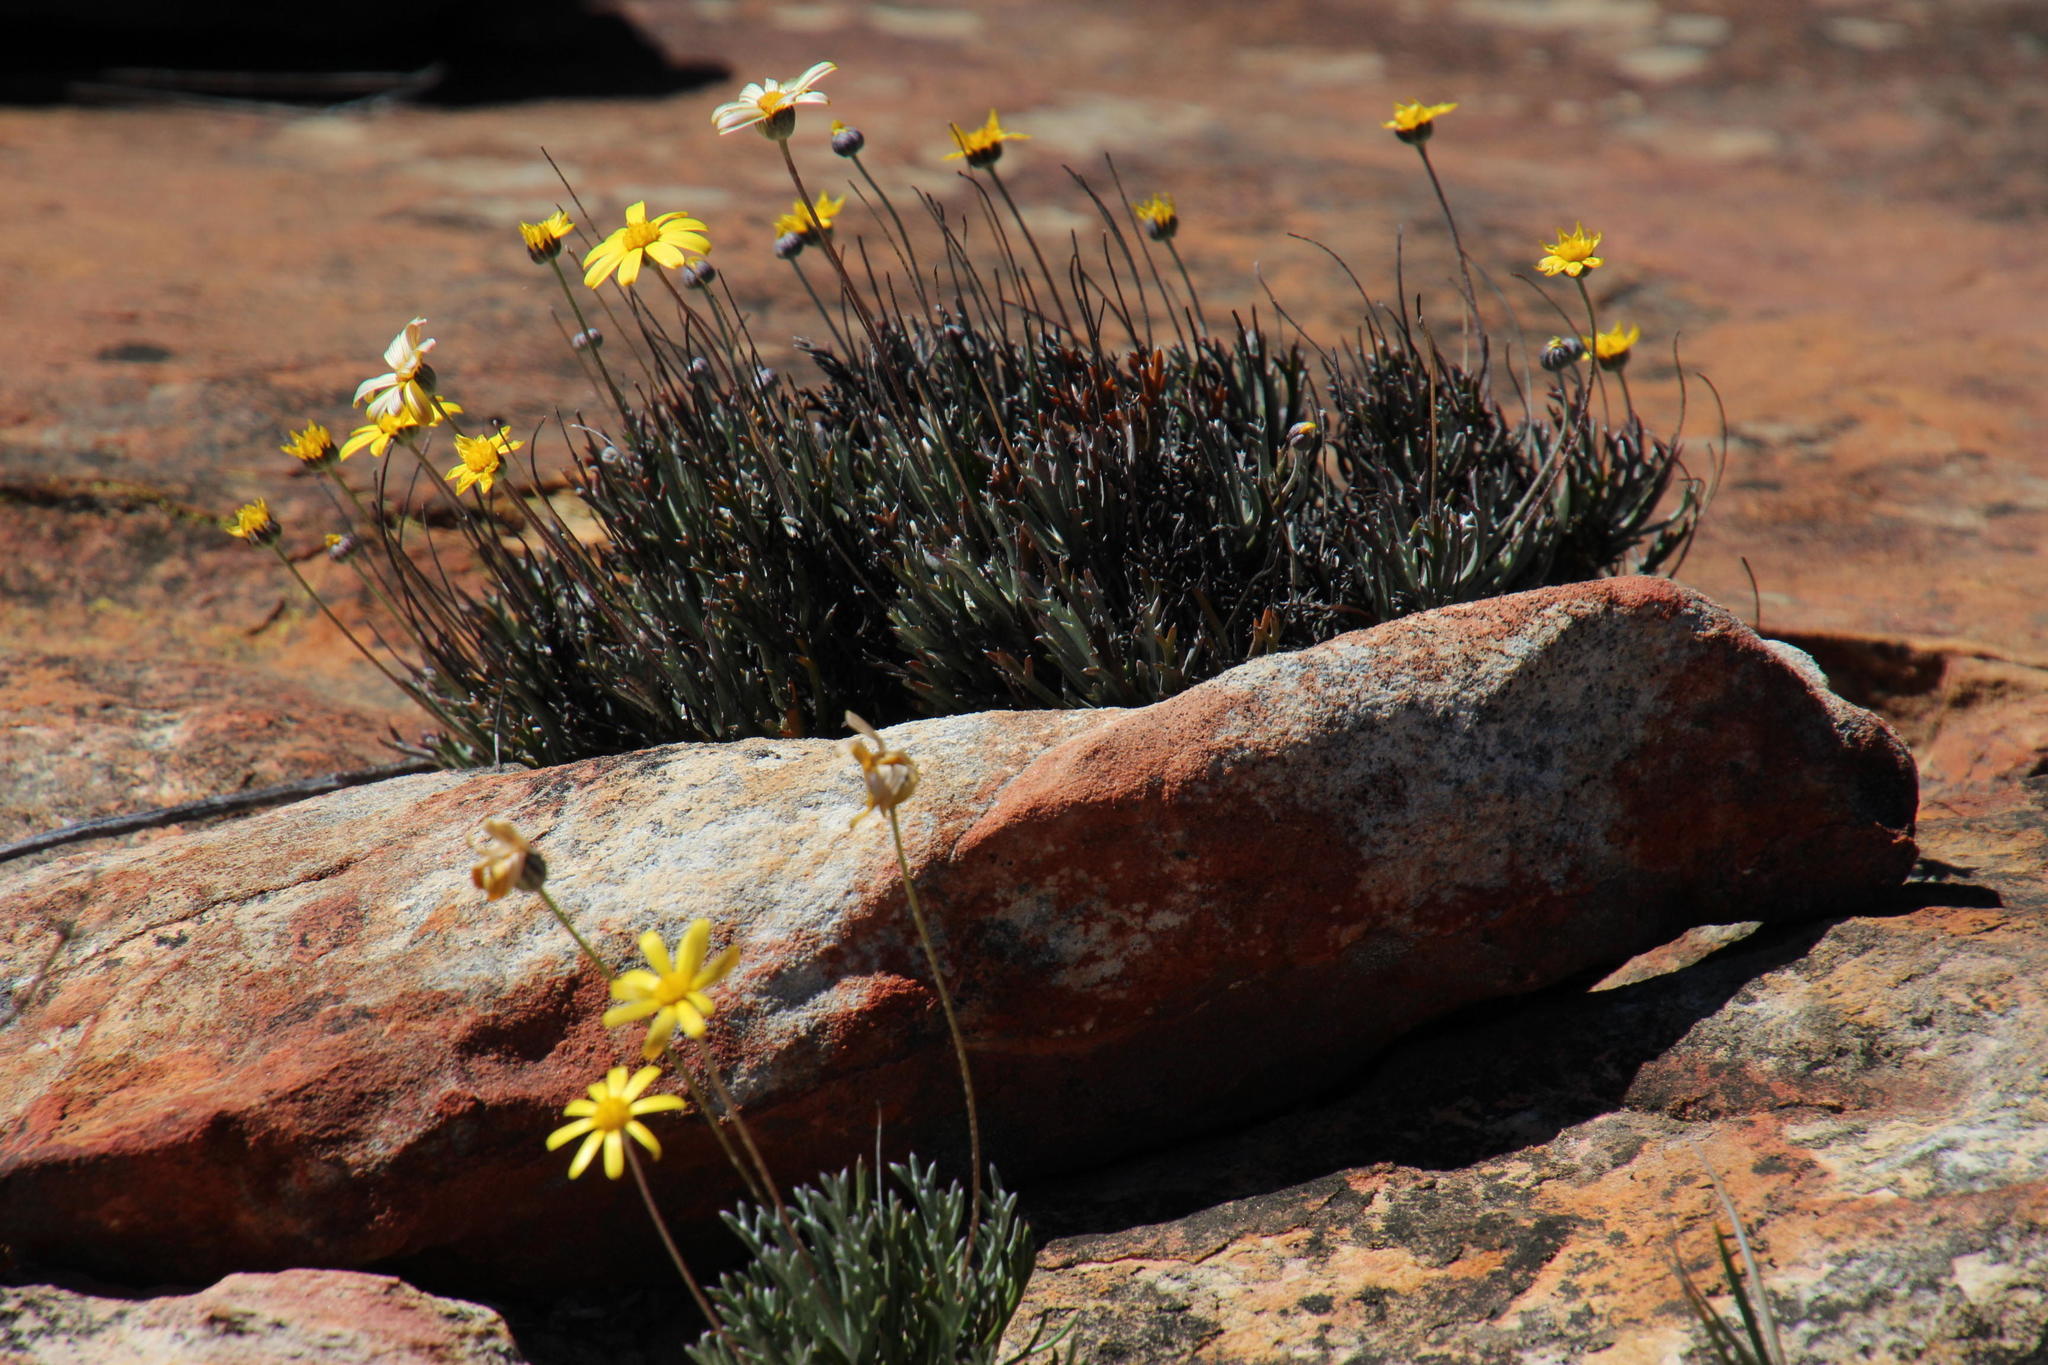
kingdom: Plantae
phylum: Tracheophyta
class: Magnoliopsida
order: Asterales
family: Asteraceae
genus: Euryops
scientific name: Euryops othonnoides
